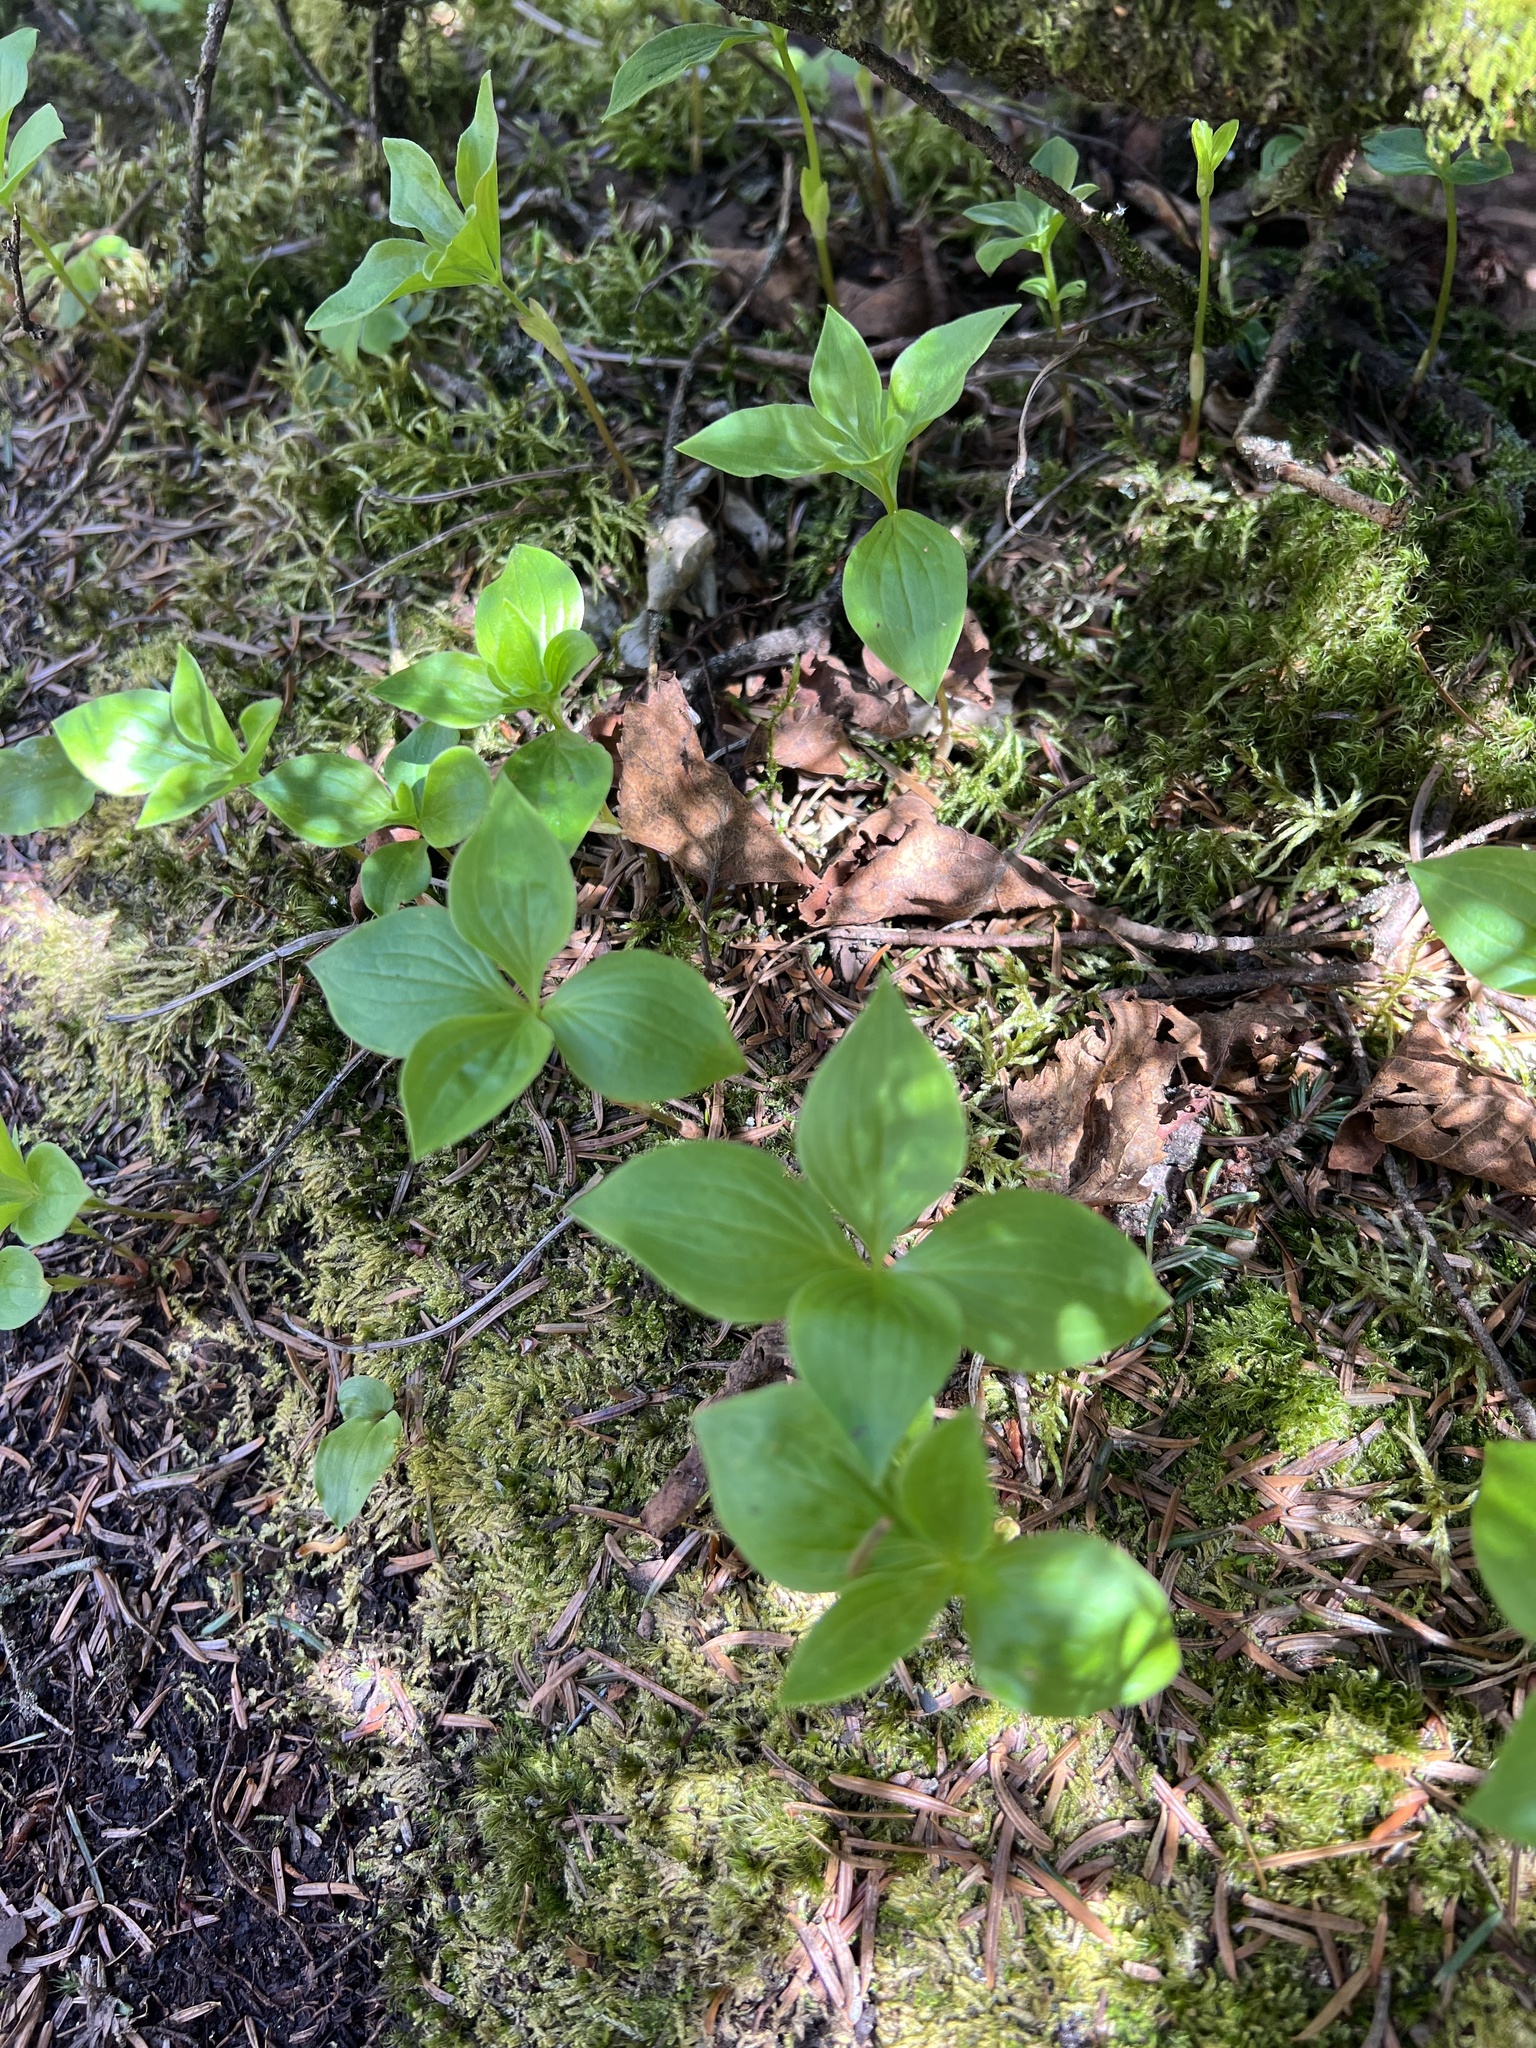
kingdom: Plantae
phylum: Tracheophyta
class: Magnoliopsida
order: Cornales
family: Cornaceae
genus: Cornus
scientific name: Cornus canadensis
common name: Creeping dogwood
